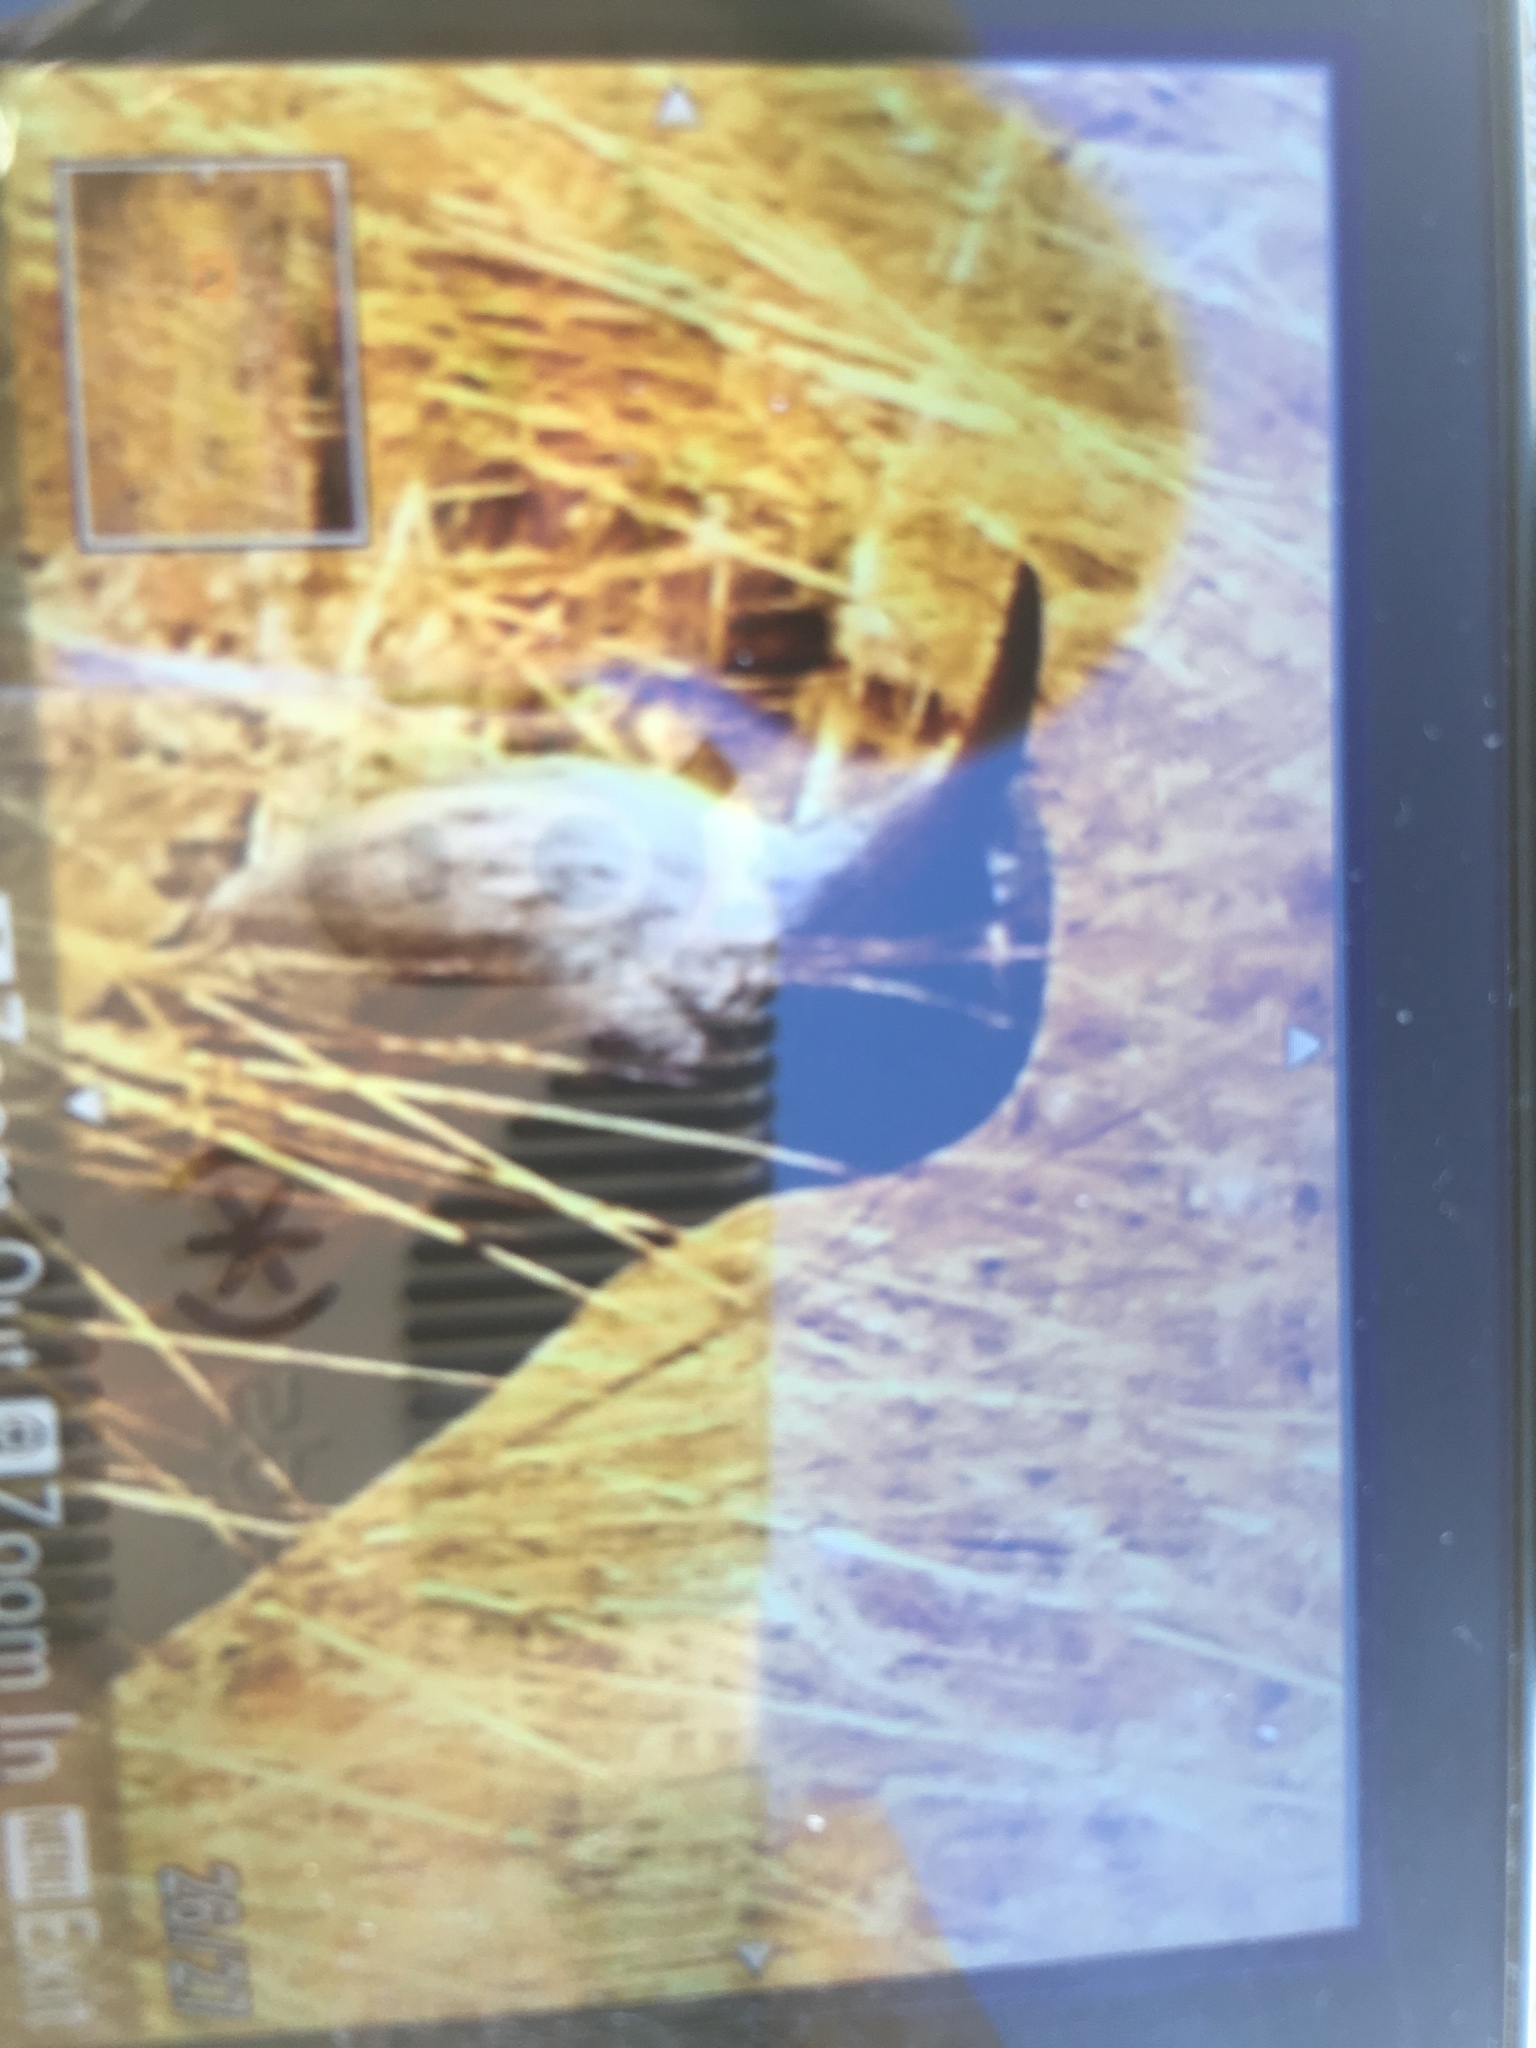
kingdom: Animalia
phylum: Chordata
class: Aves
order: Passeriformes
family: Troglodytidae
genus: Campylorhynchus
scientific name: Campylorhynchus brunneicapillus
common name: Cactus wren
